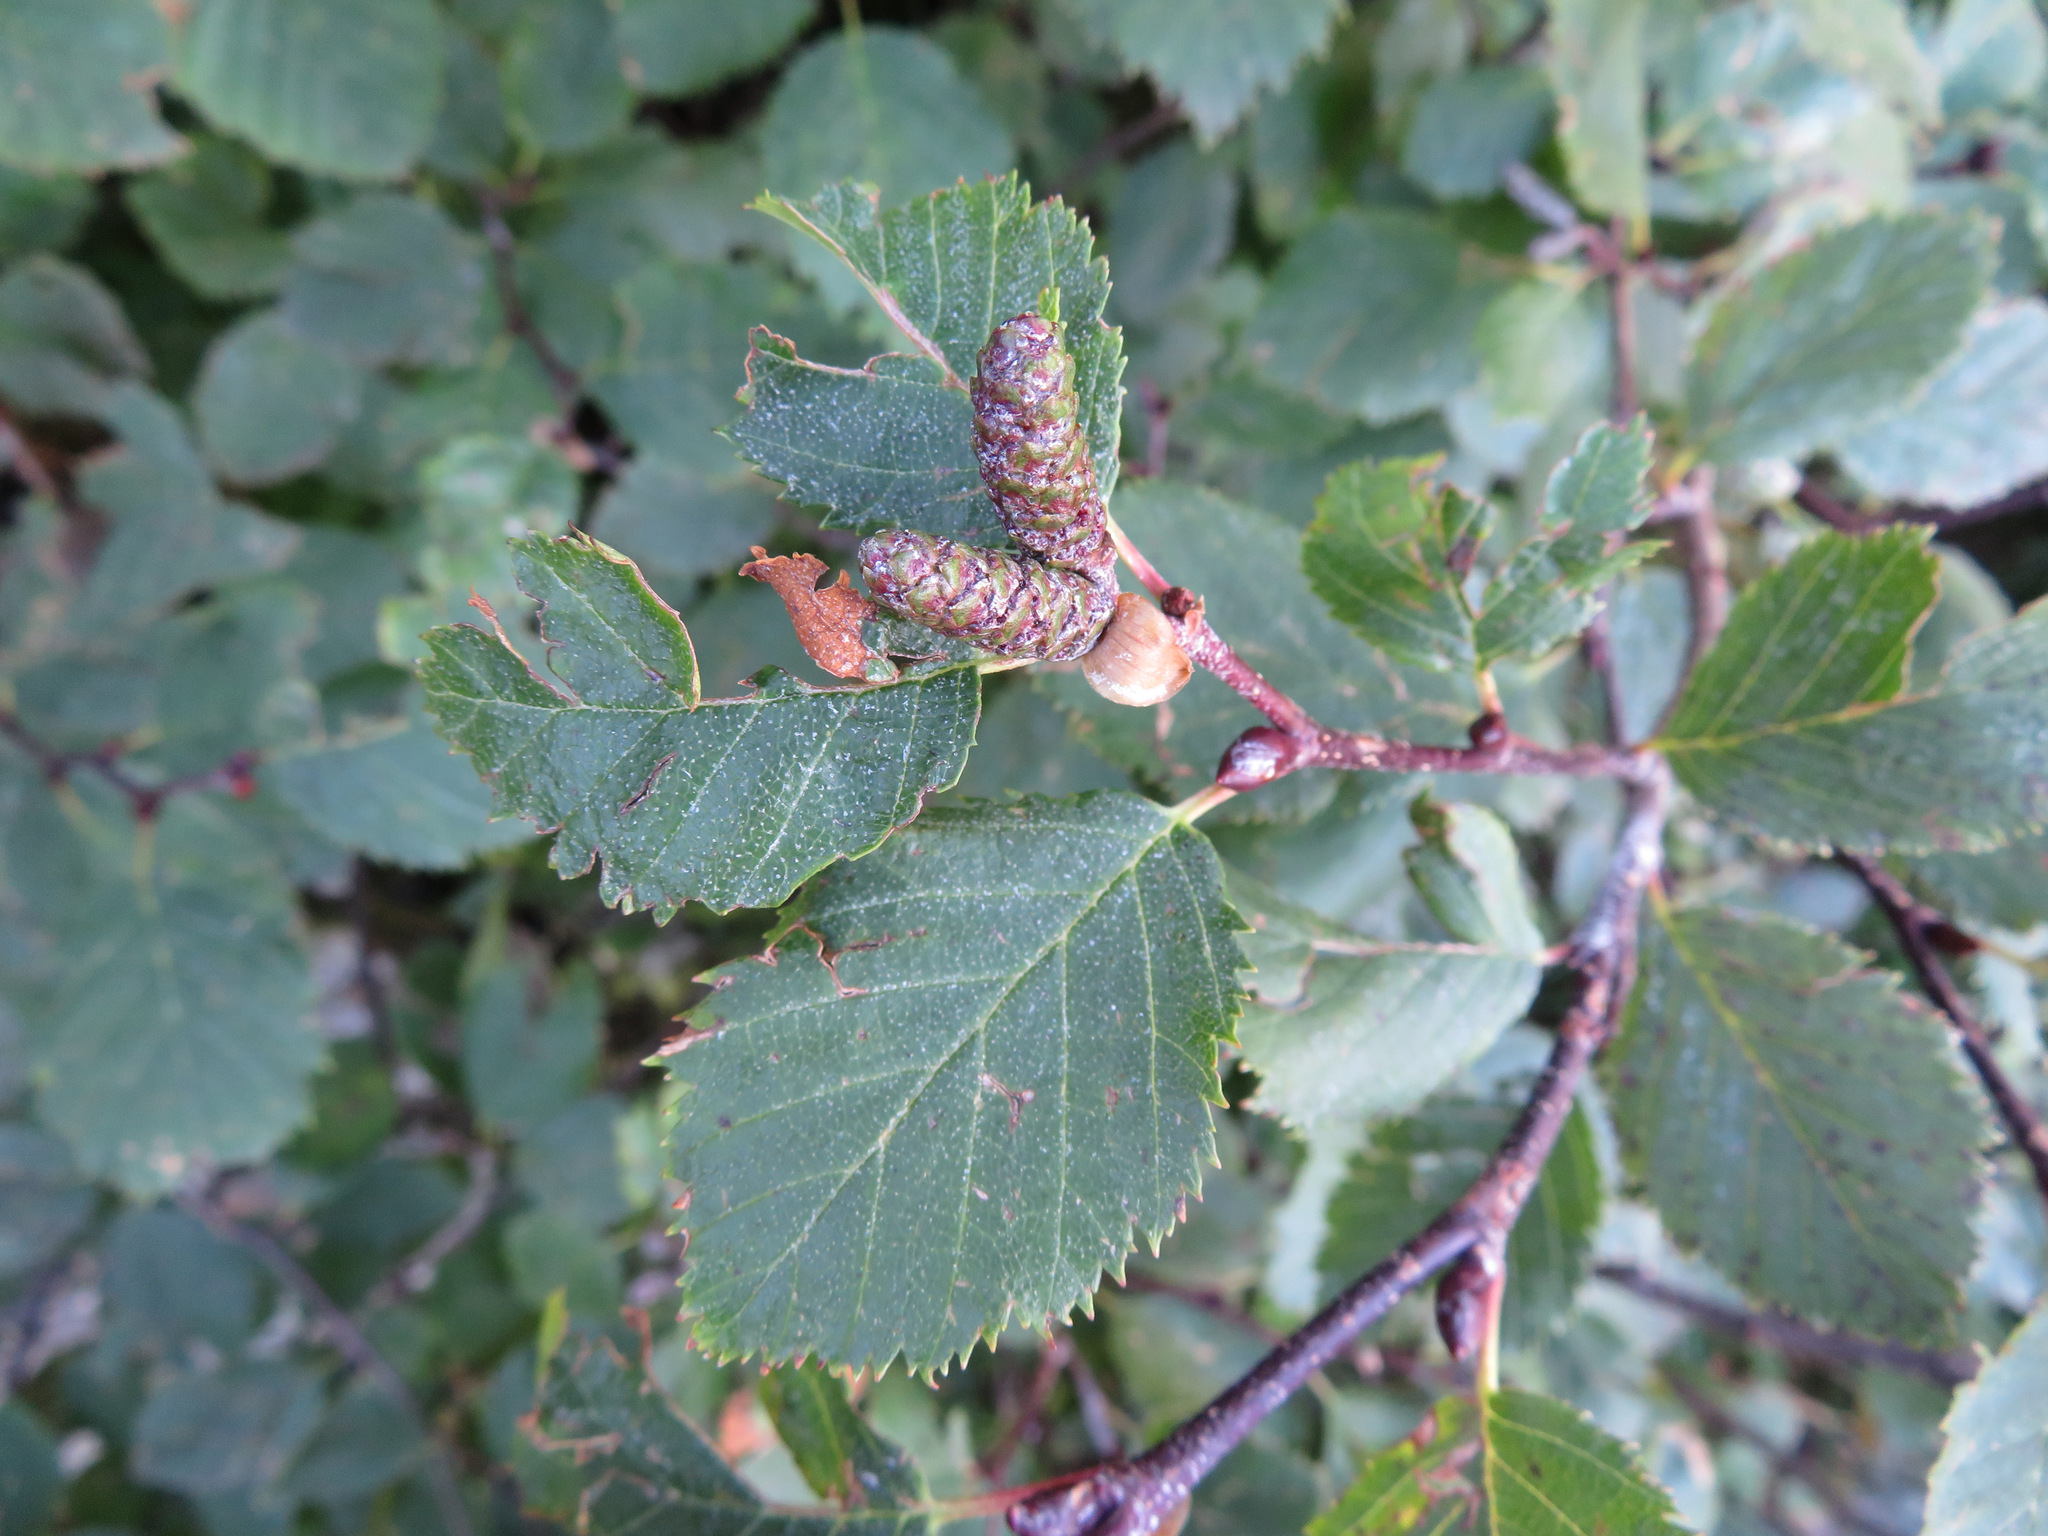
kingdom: Plantae
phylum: Tracheophyta
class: Magnoliopsida
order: Fagales
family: Betulaceae
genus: Alnus
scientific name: Alnus alnobetula
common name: Green alder
